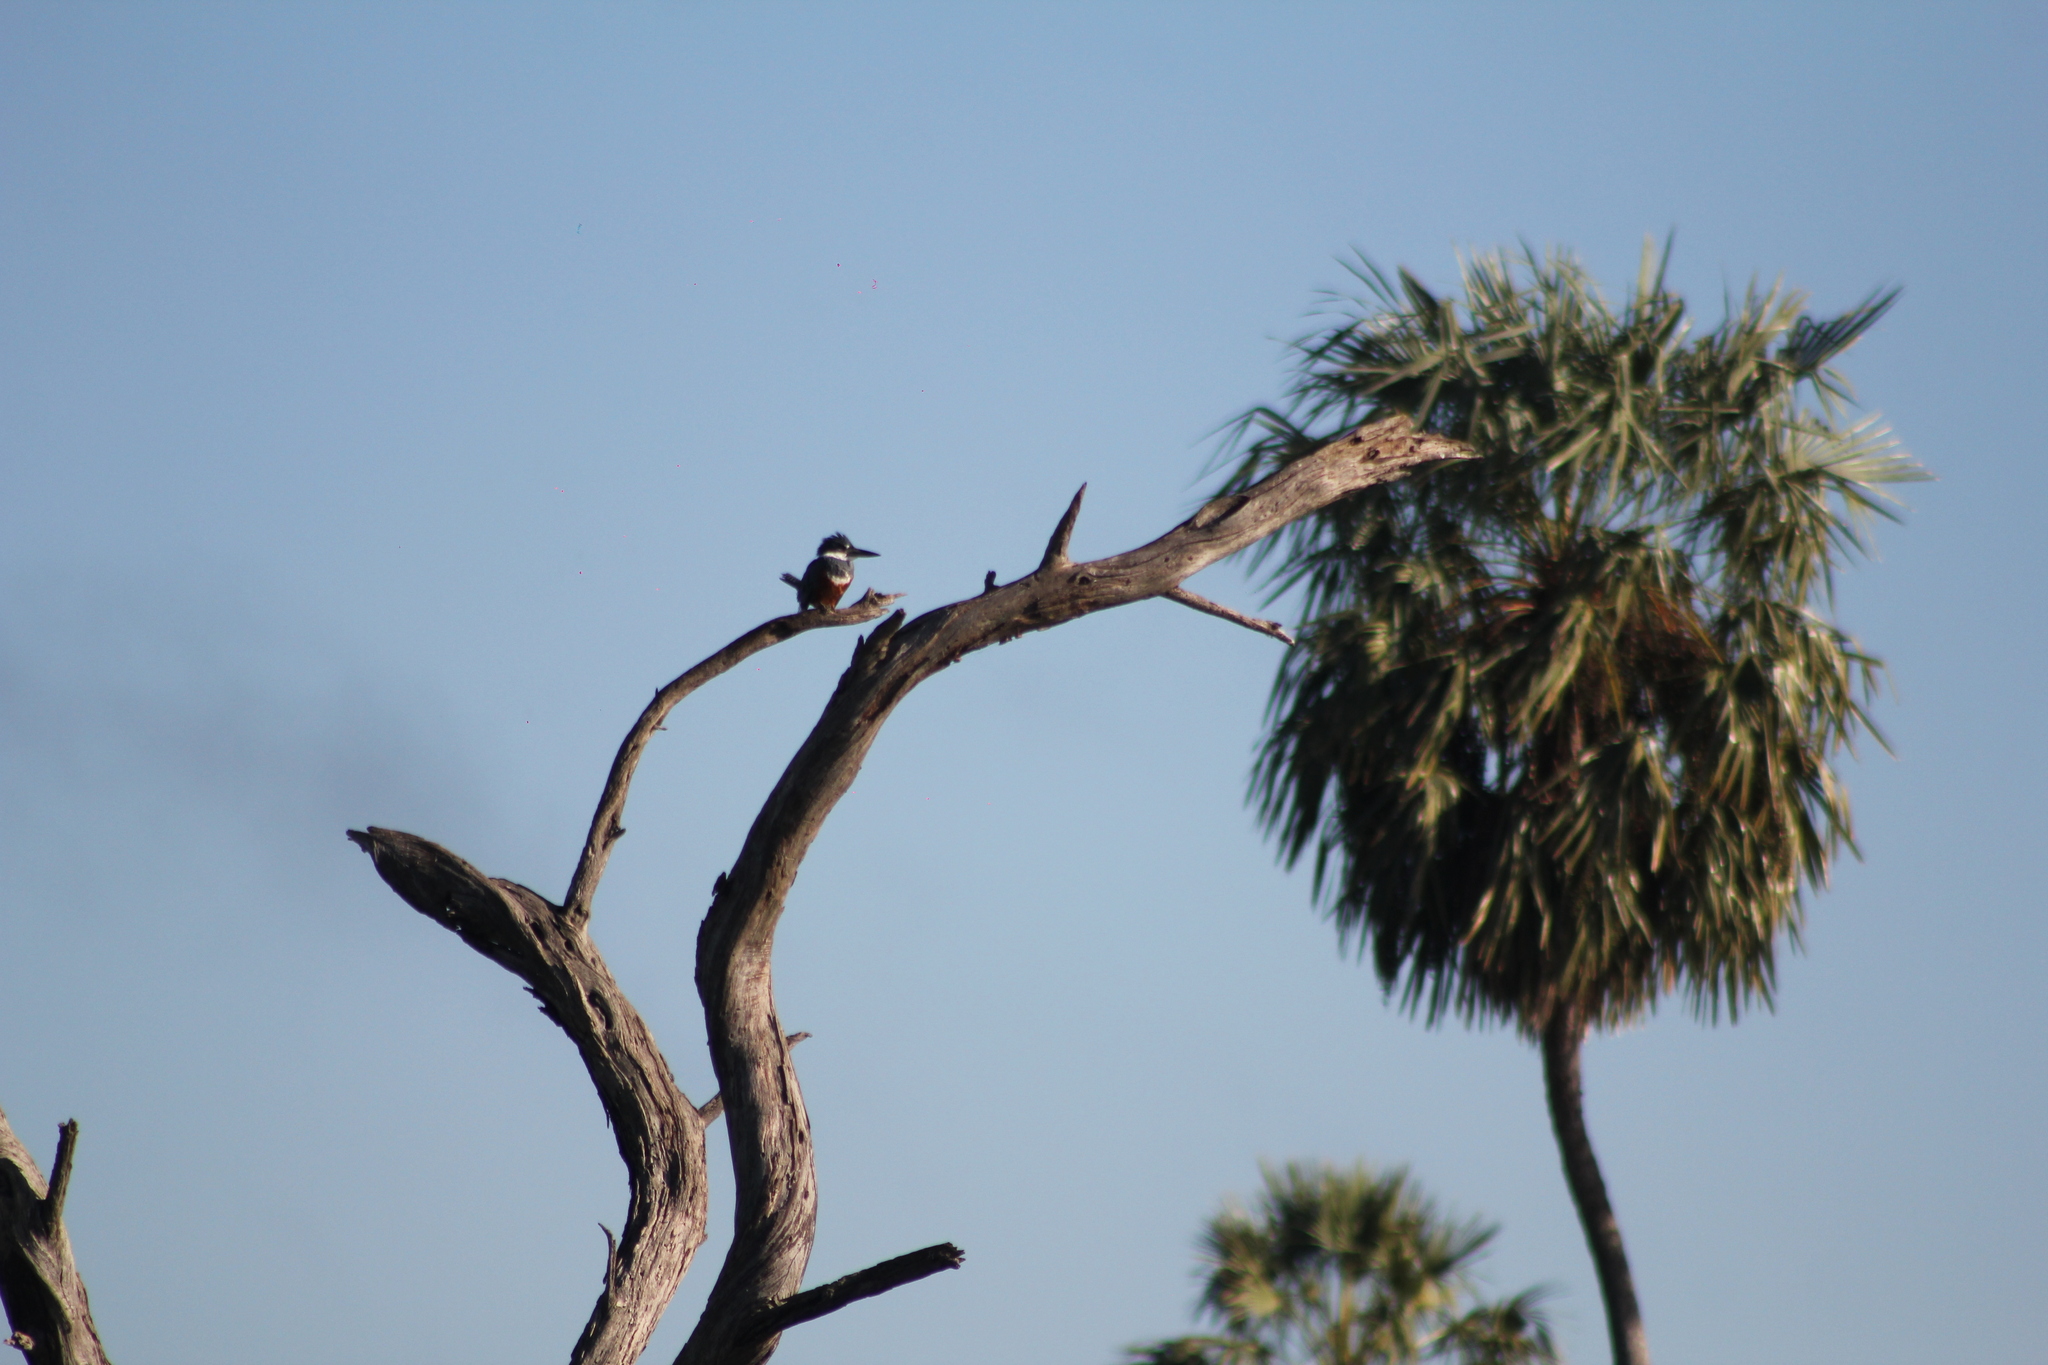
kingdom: Animalia
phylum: Chordata
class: Aves
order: Coraciiformes
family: Alcedinidae
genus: Megaceryle
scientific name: Megaceryle torquata
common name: Ringed kingfisher
